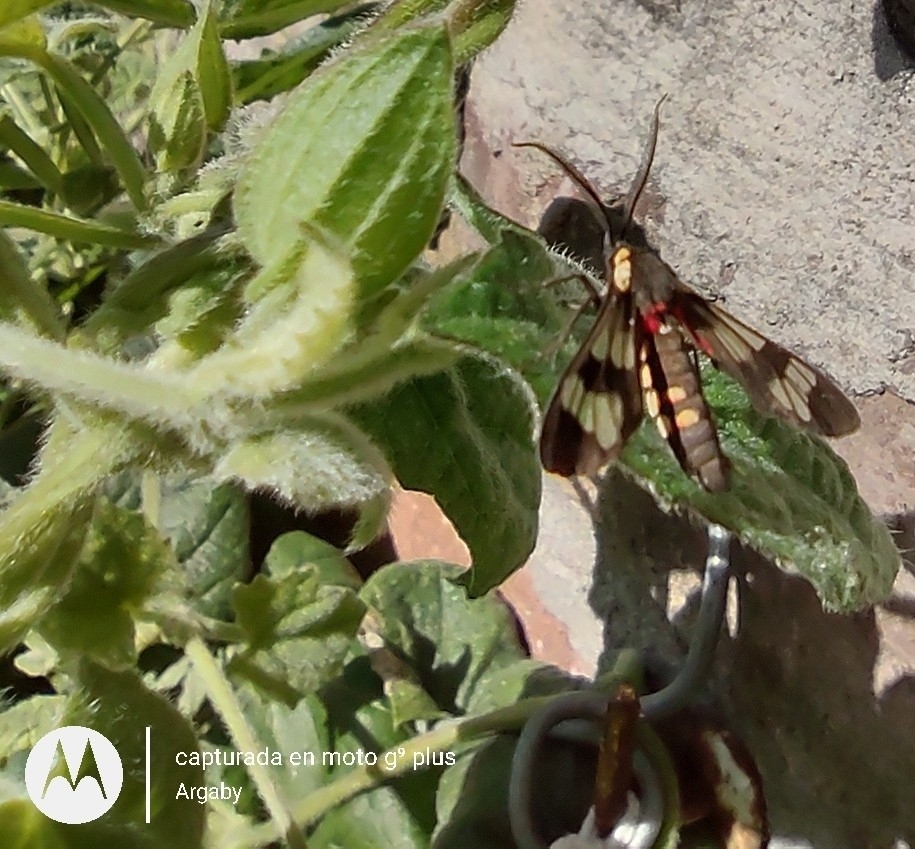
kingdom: Animalia
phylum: Arthropoda
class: Insecta
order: Lepidoptera
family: Erebidae
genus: Eurata
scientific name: Eurata hermione
